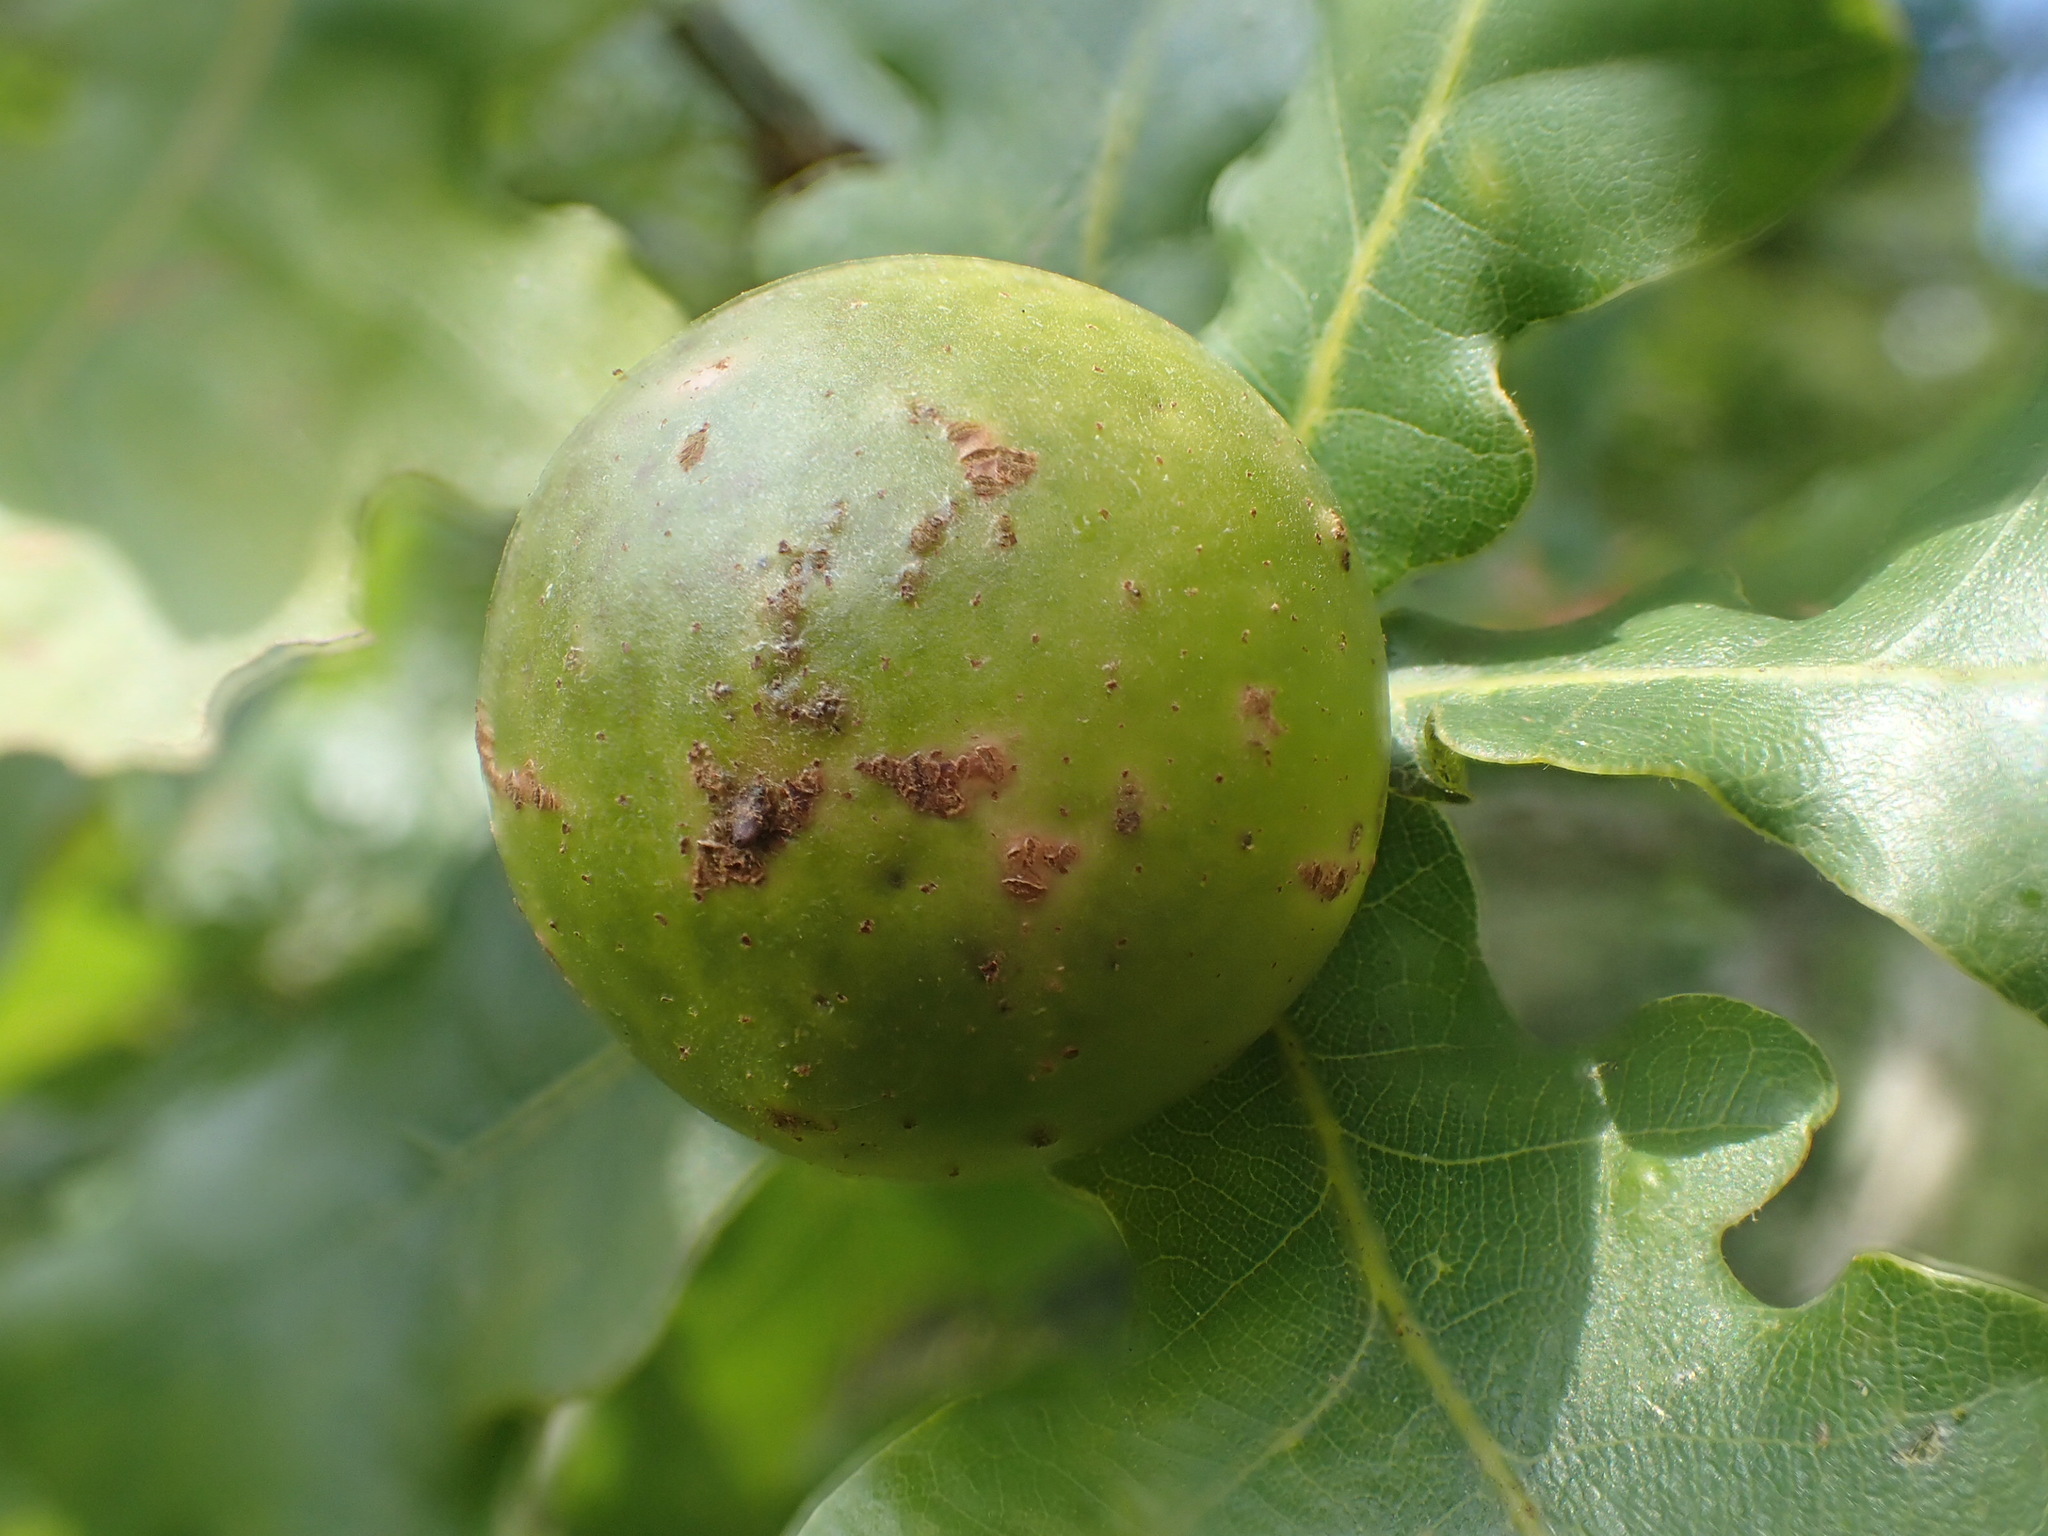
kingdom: Animalia
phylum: Arthropoda
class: Insecta
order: Hymenoptera
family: Cynipidae
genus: Andricus
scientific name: Andricus kollari
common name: Marble gall
